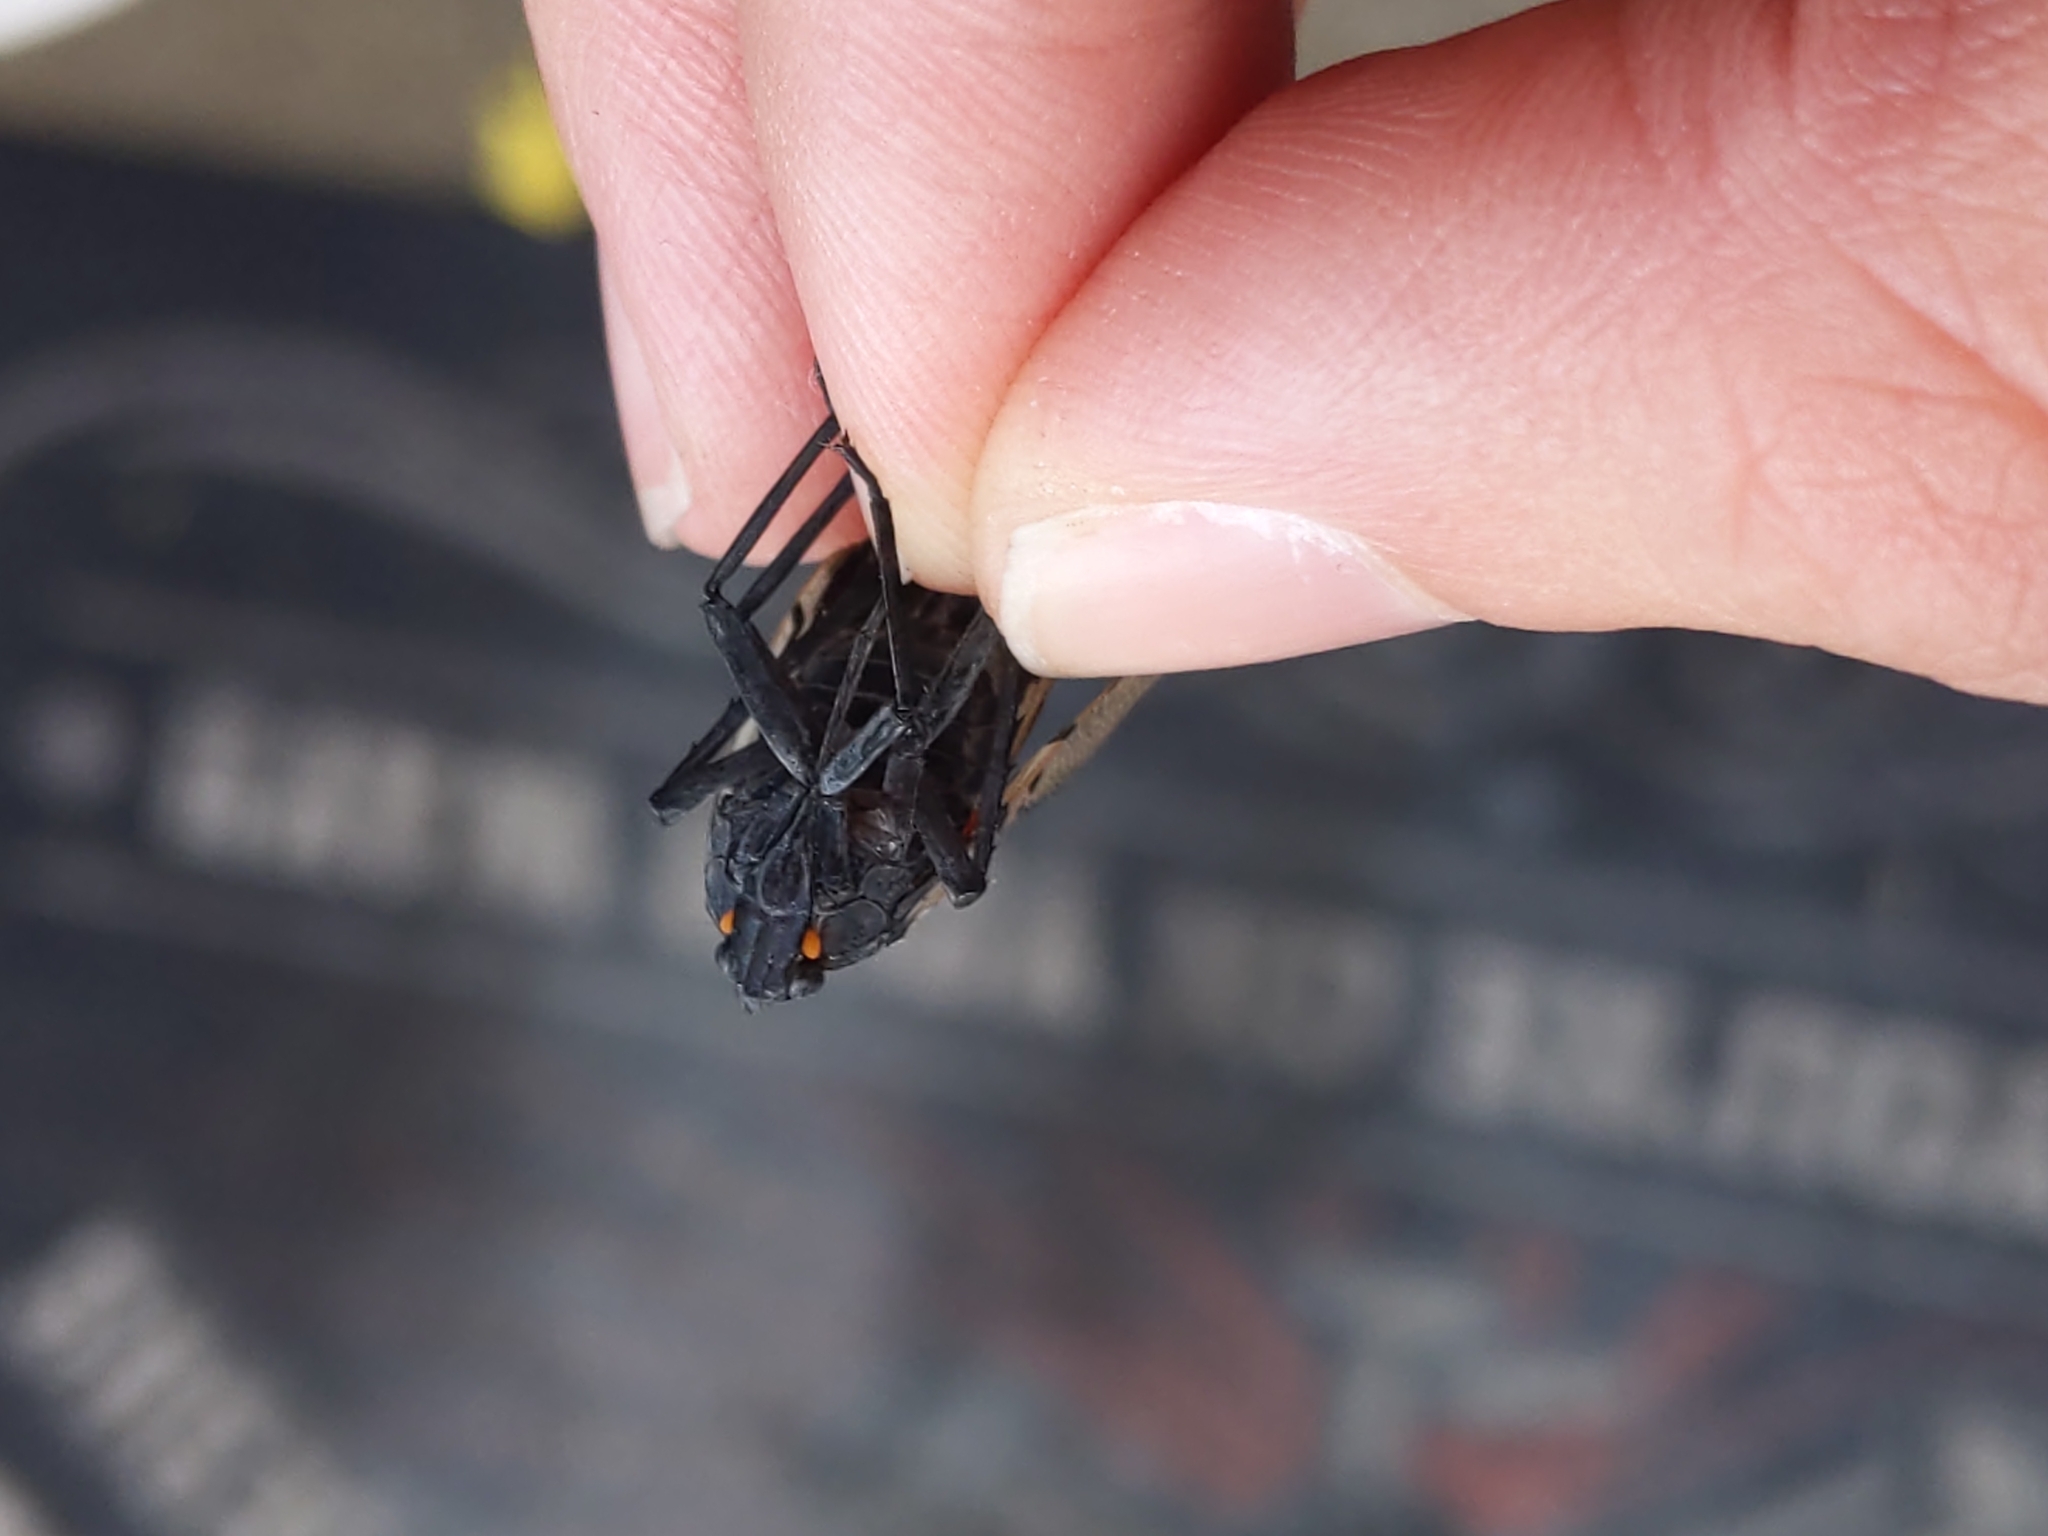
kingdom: Animalia
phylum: Arthropoda
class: Insecta
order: Hemiptera
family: Fulgoridae
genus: Lycorma
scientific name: Lycorma delicatula
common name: Spotted lanternfly
